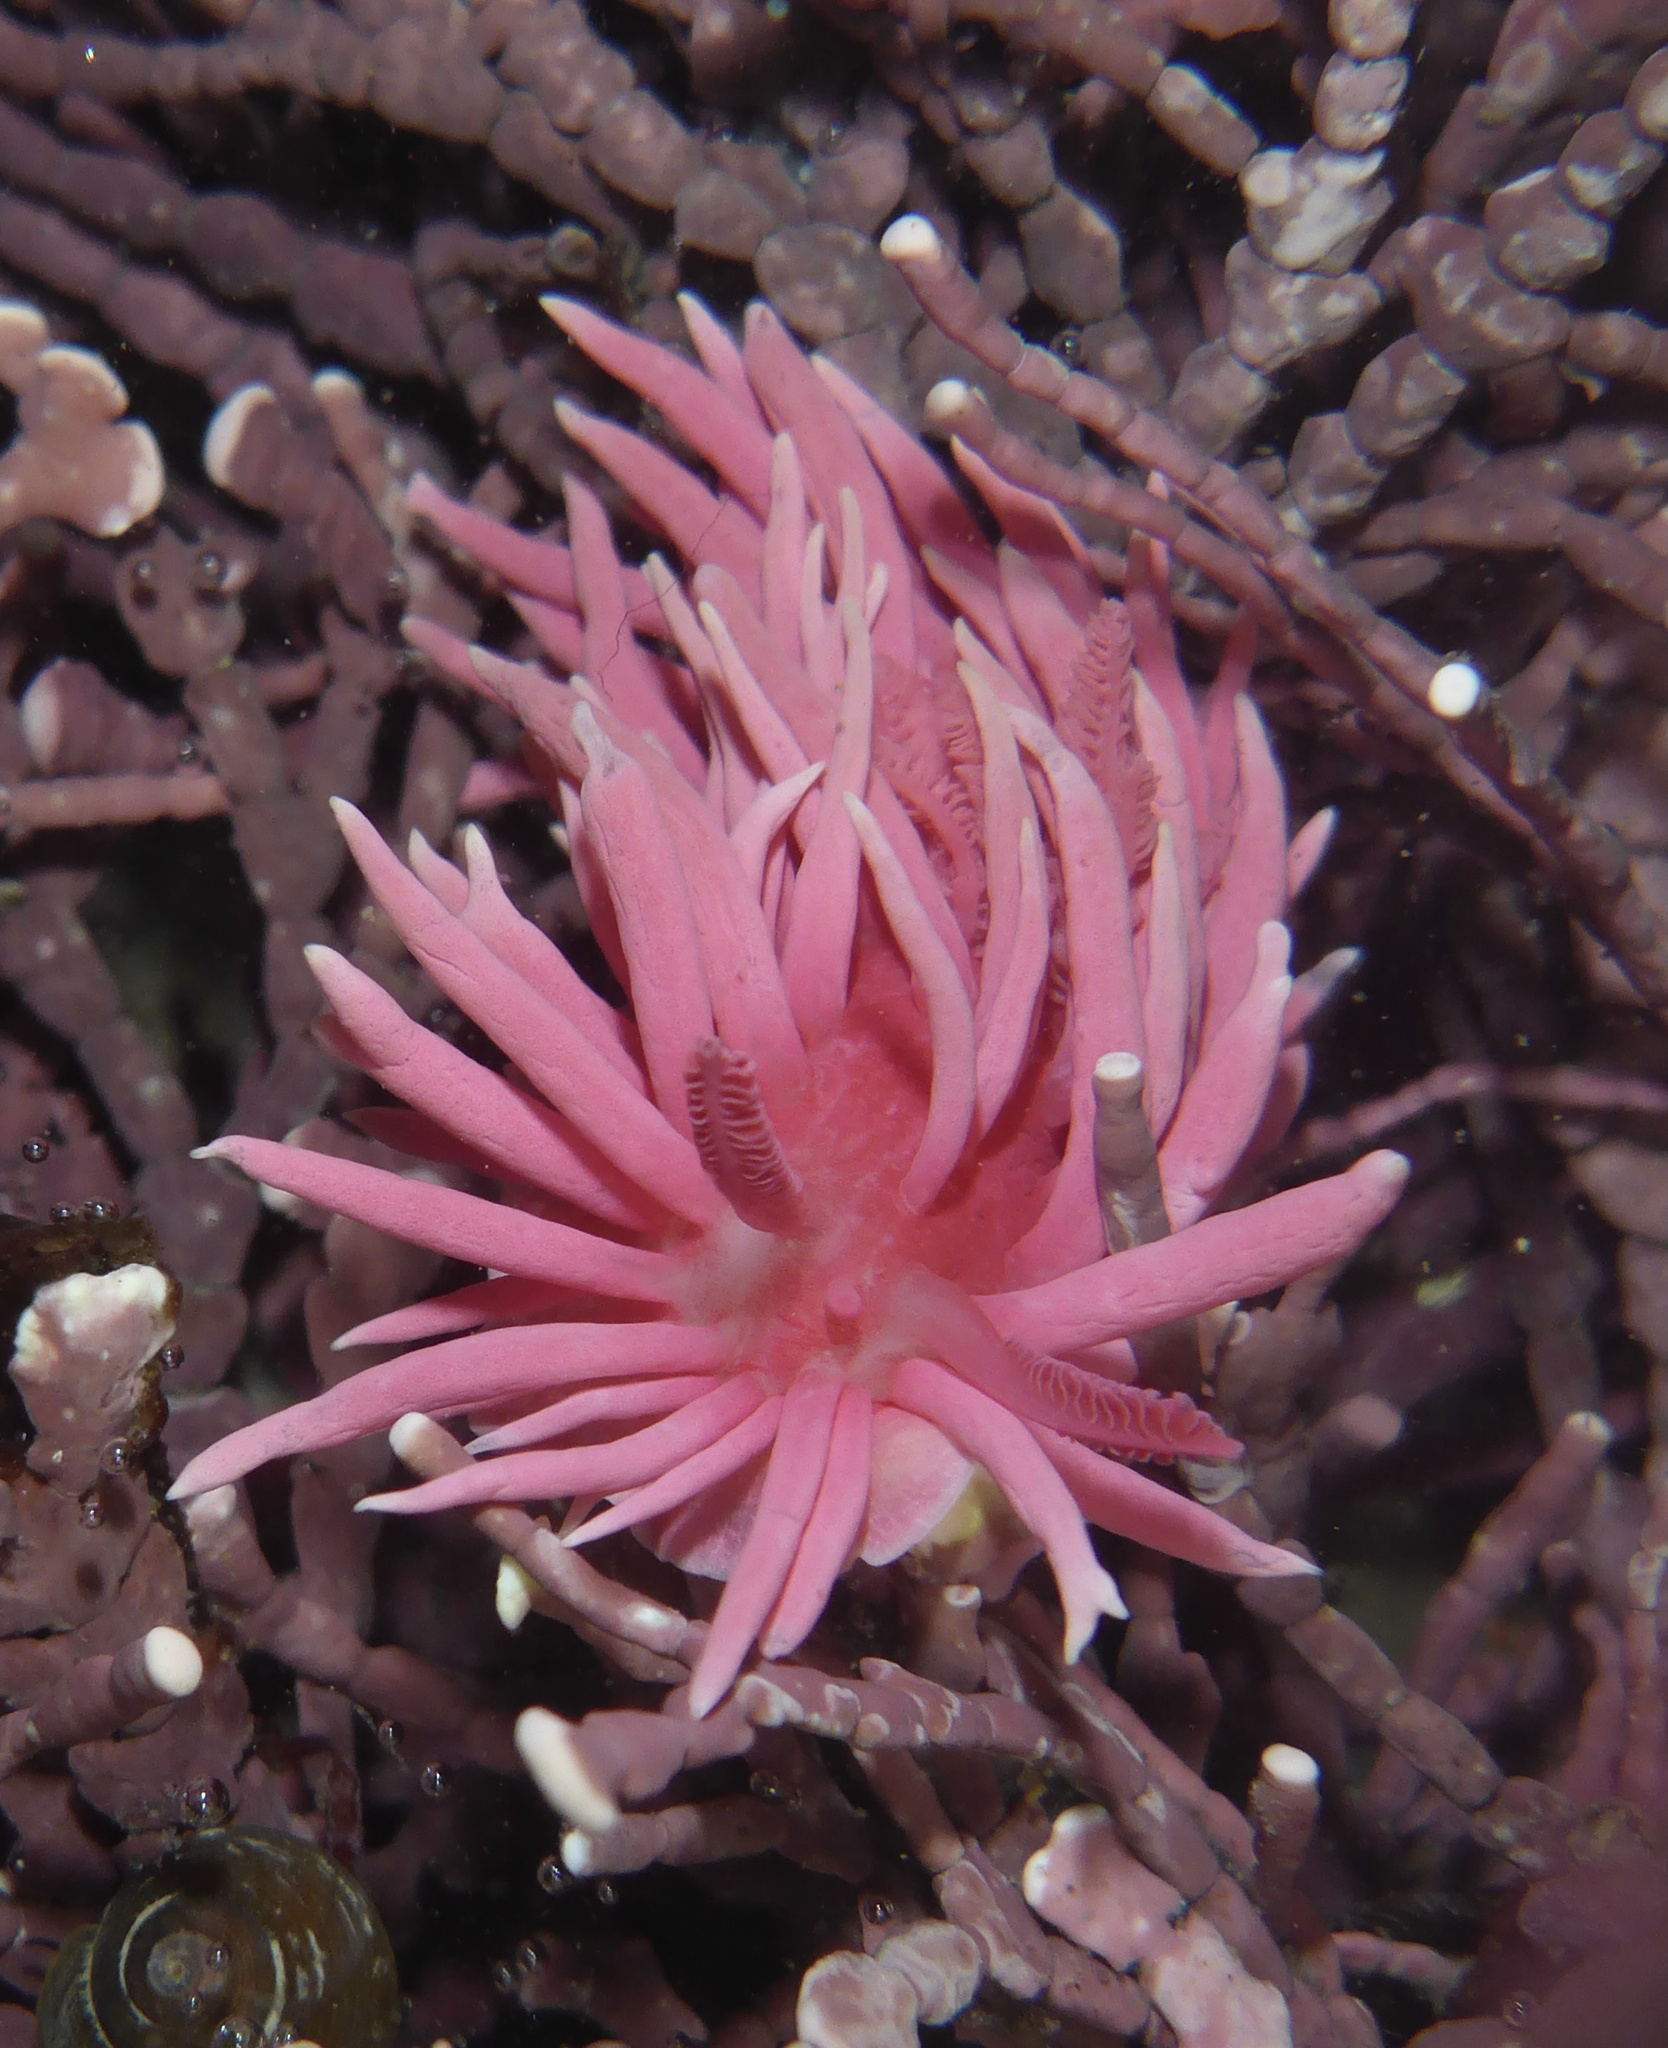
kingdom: Animalia
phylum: Mollusca
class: Gastropoda
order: Nudibranchia
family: Goniodorididae
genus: Okenia
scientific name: Okenia
